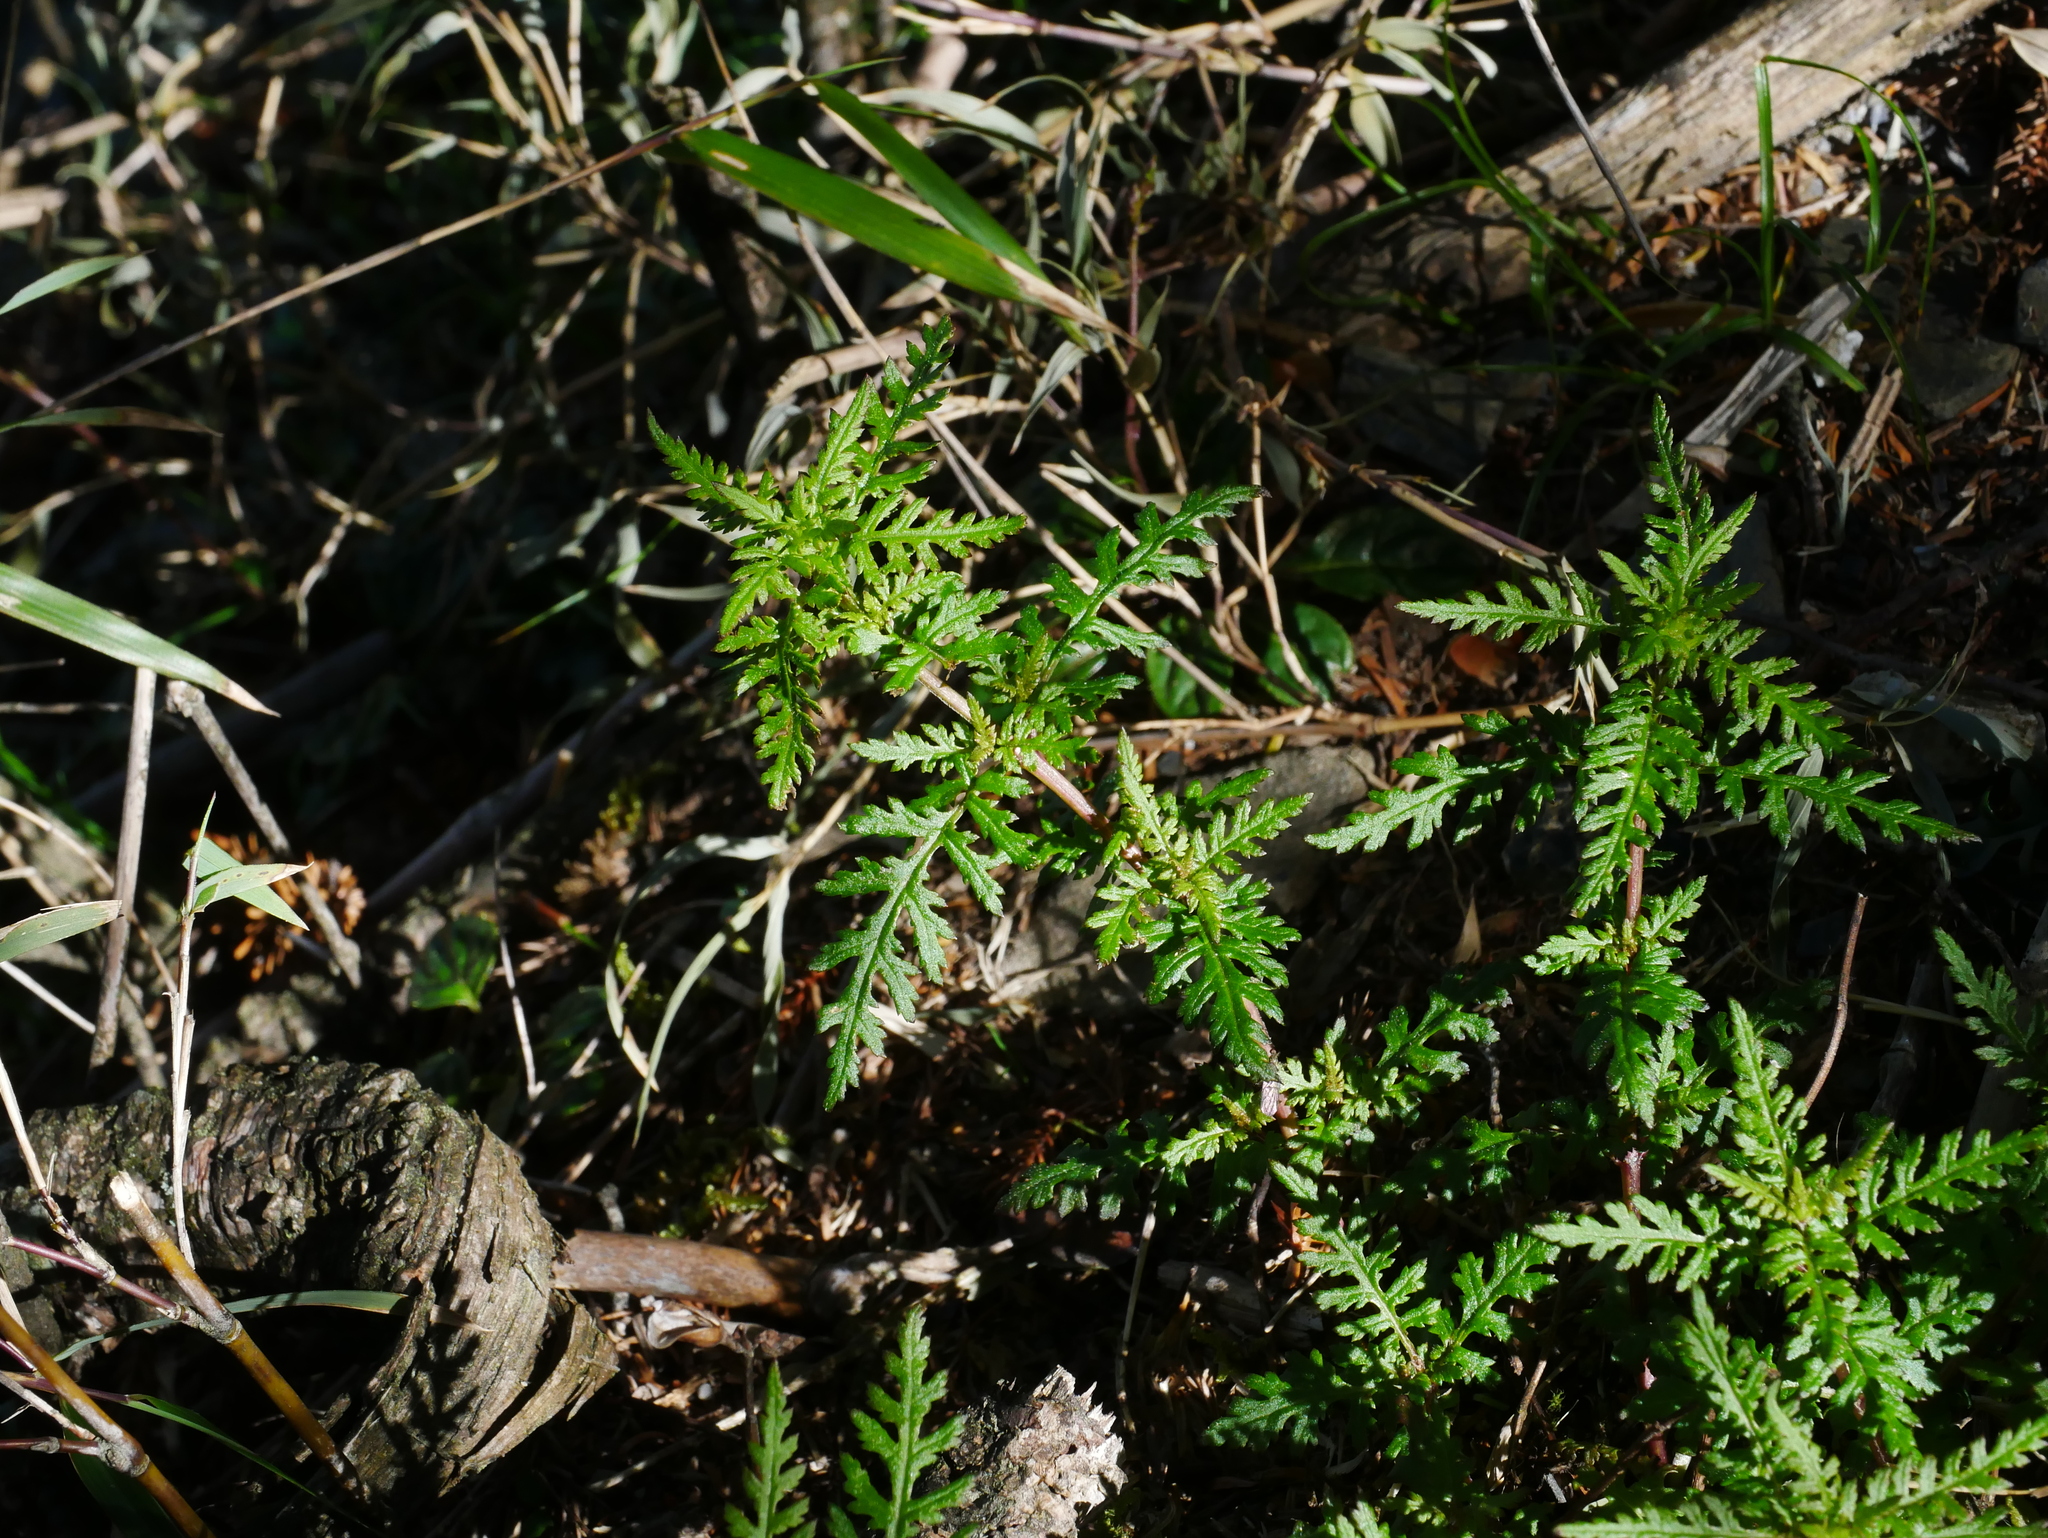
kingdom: Plantae
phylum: Tracheophyta
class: Magnoliopsida
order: Lamiales
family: Orobanchaceae
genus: Pedicularis
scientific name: Pedicularis ikomai
